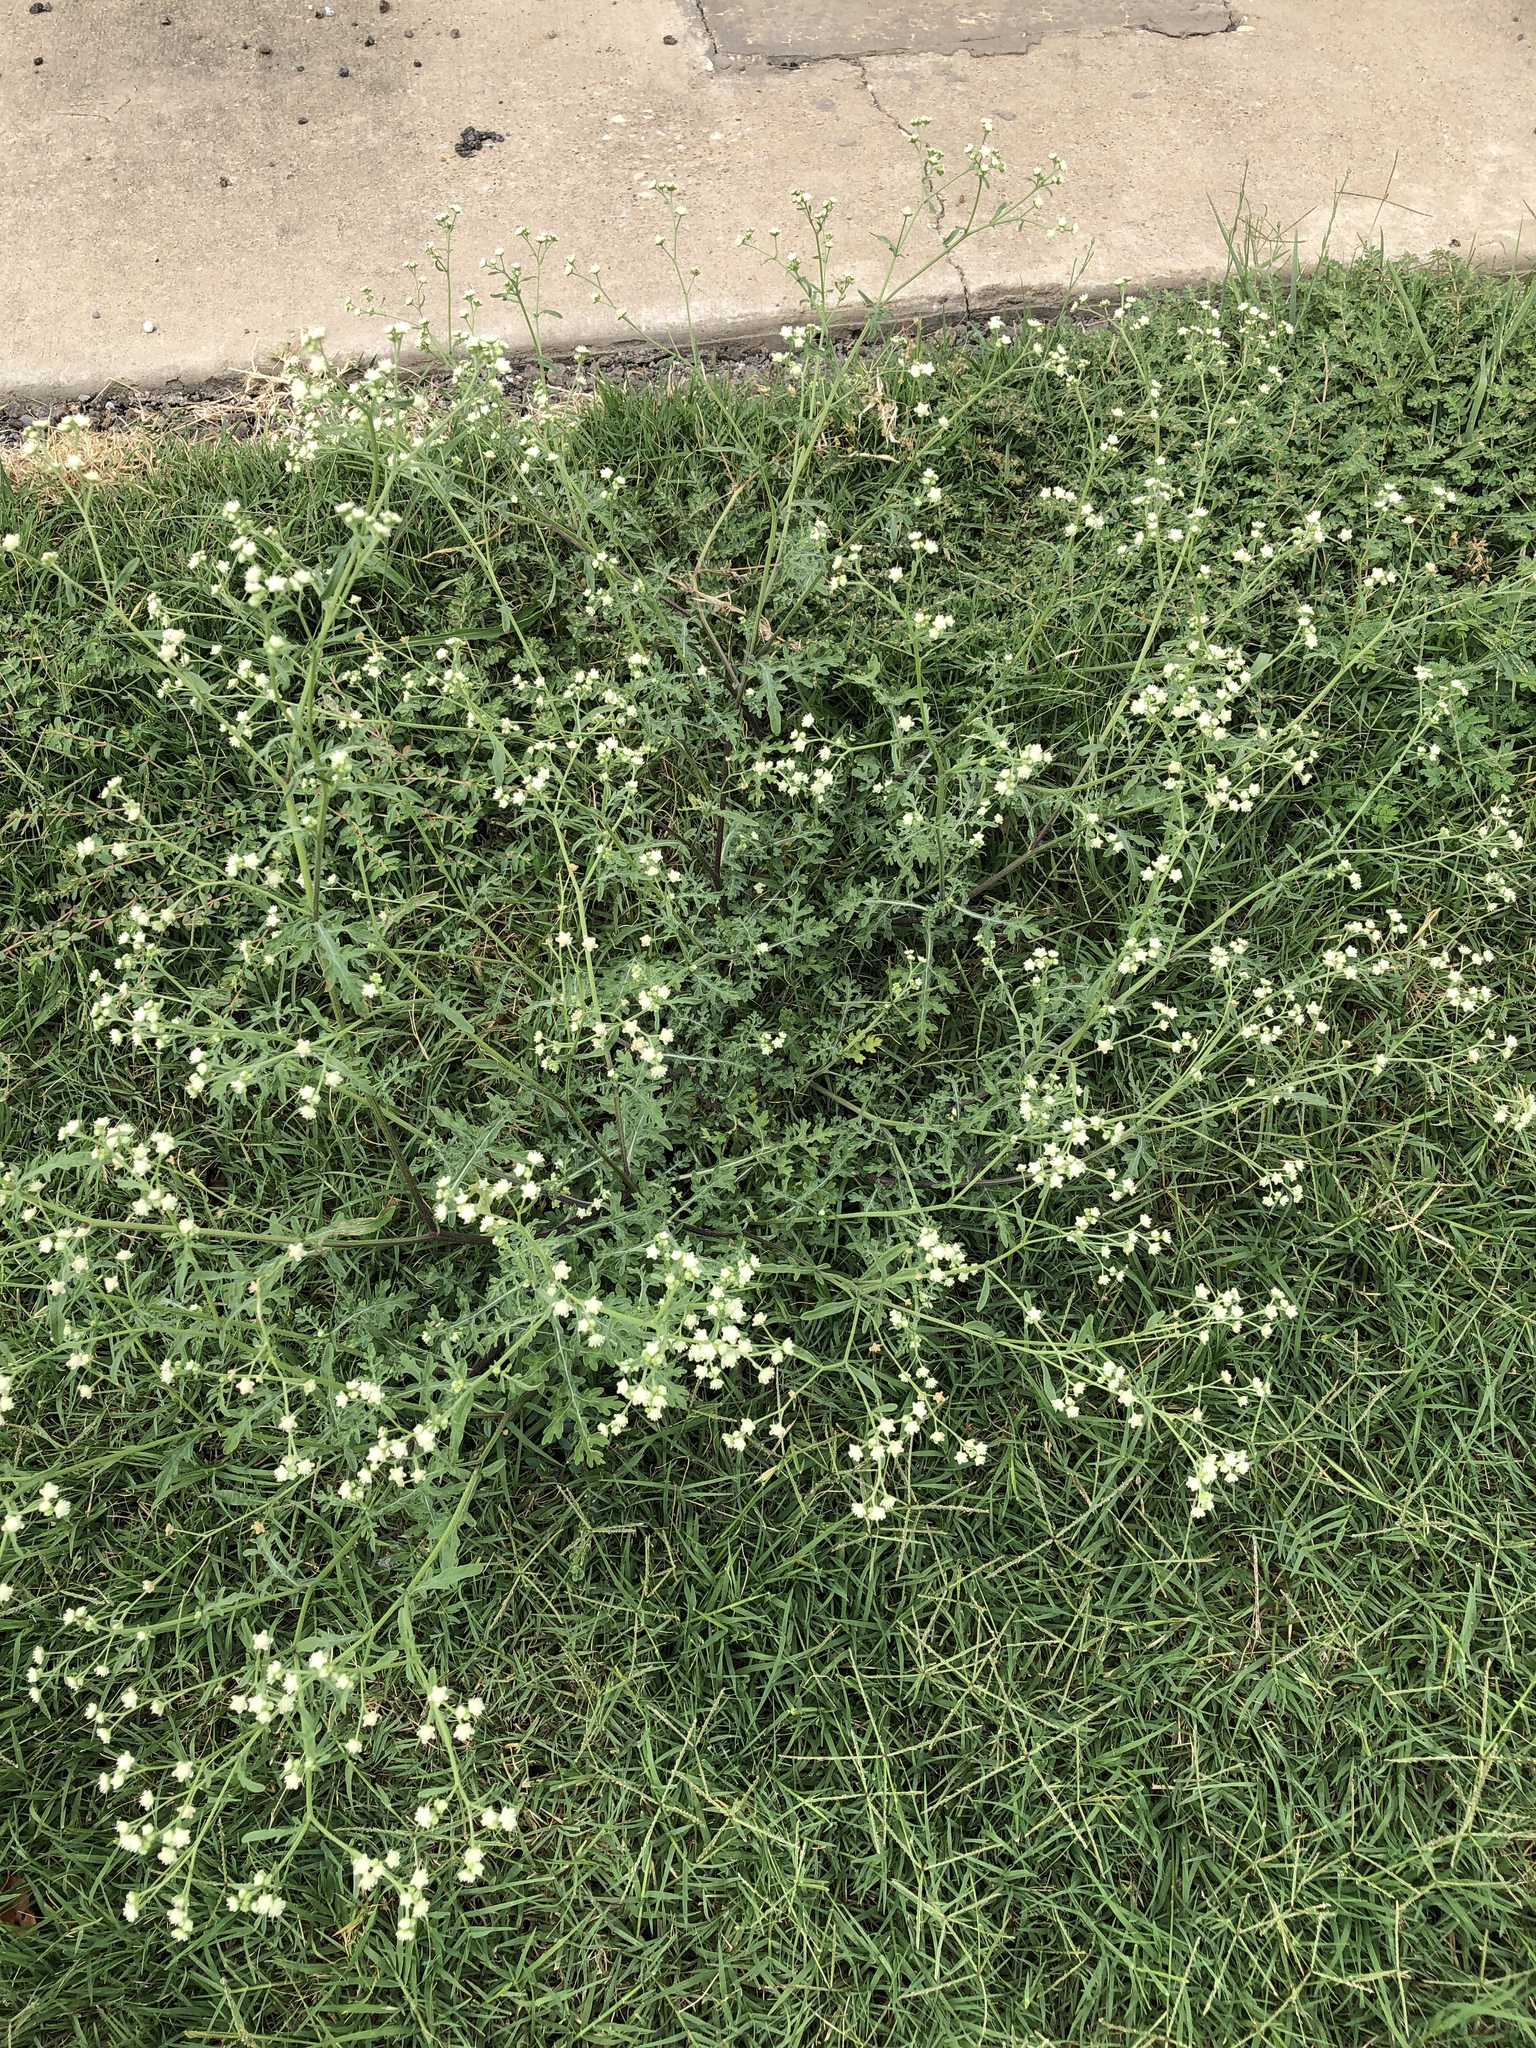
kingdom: Plantae
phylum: Tracheophyta
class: Magnoliopsida
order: Asterales
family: Asteraceae
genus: Parthenium
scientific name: Parthenium hysterophorus
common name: Santa maria feverfew
